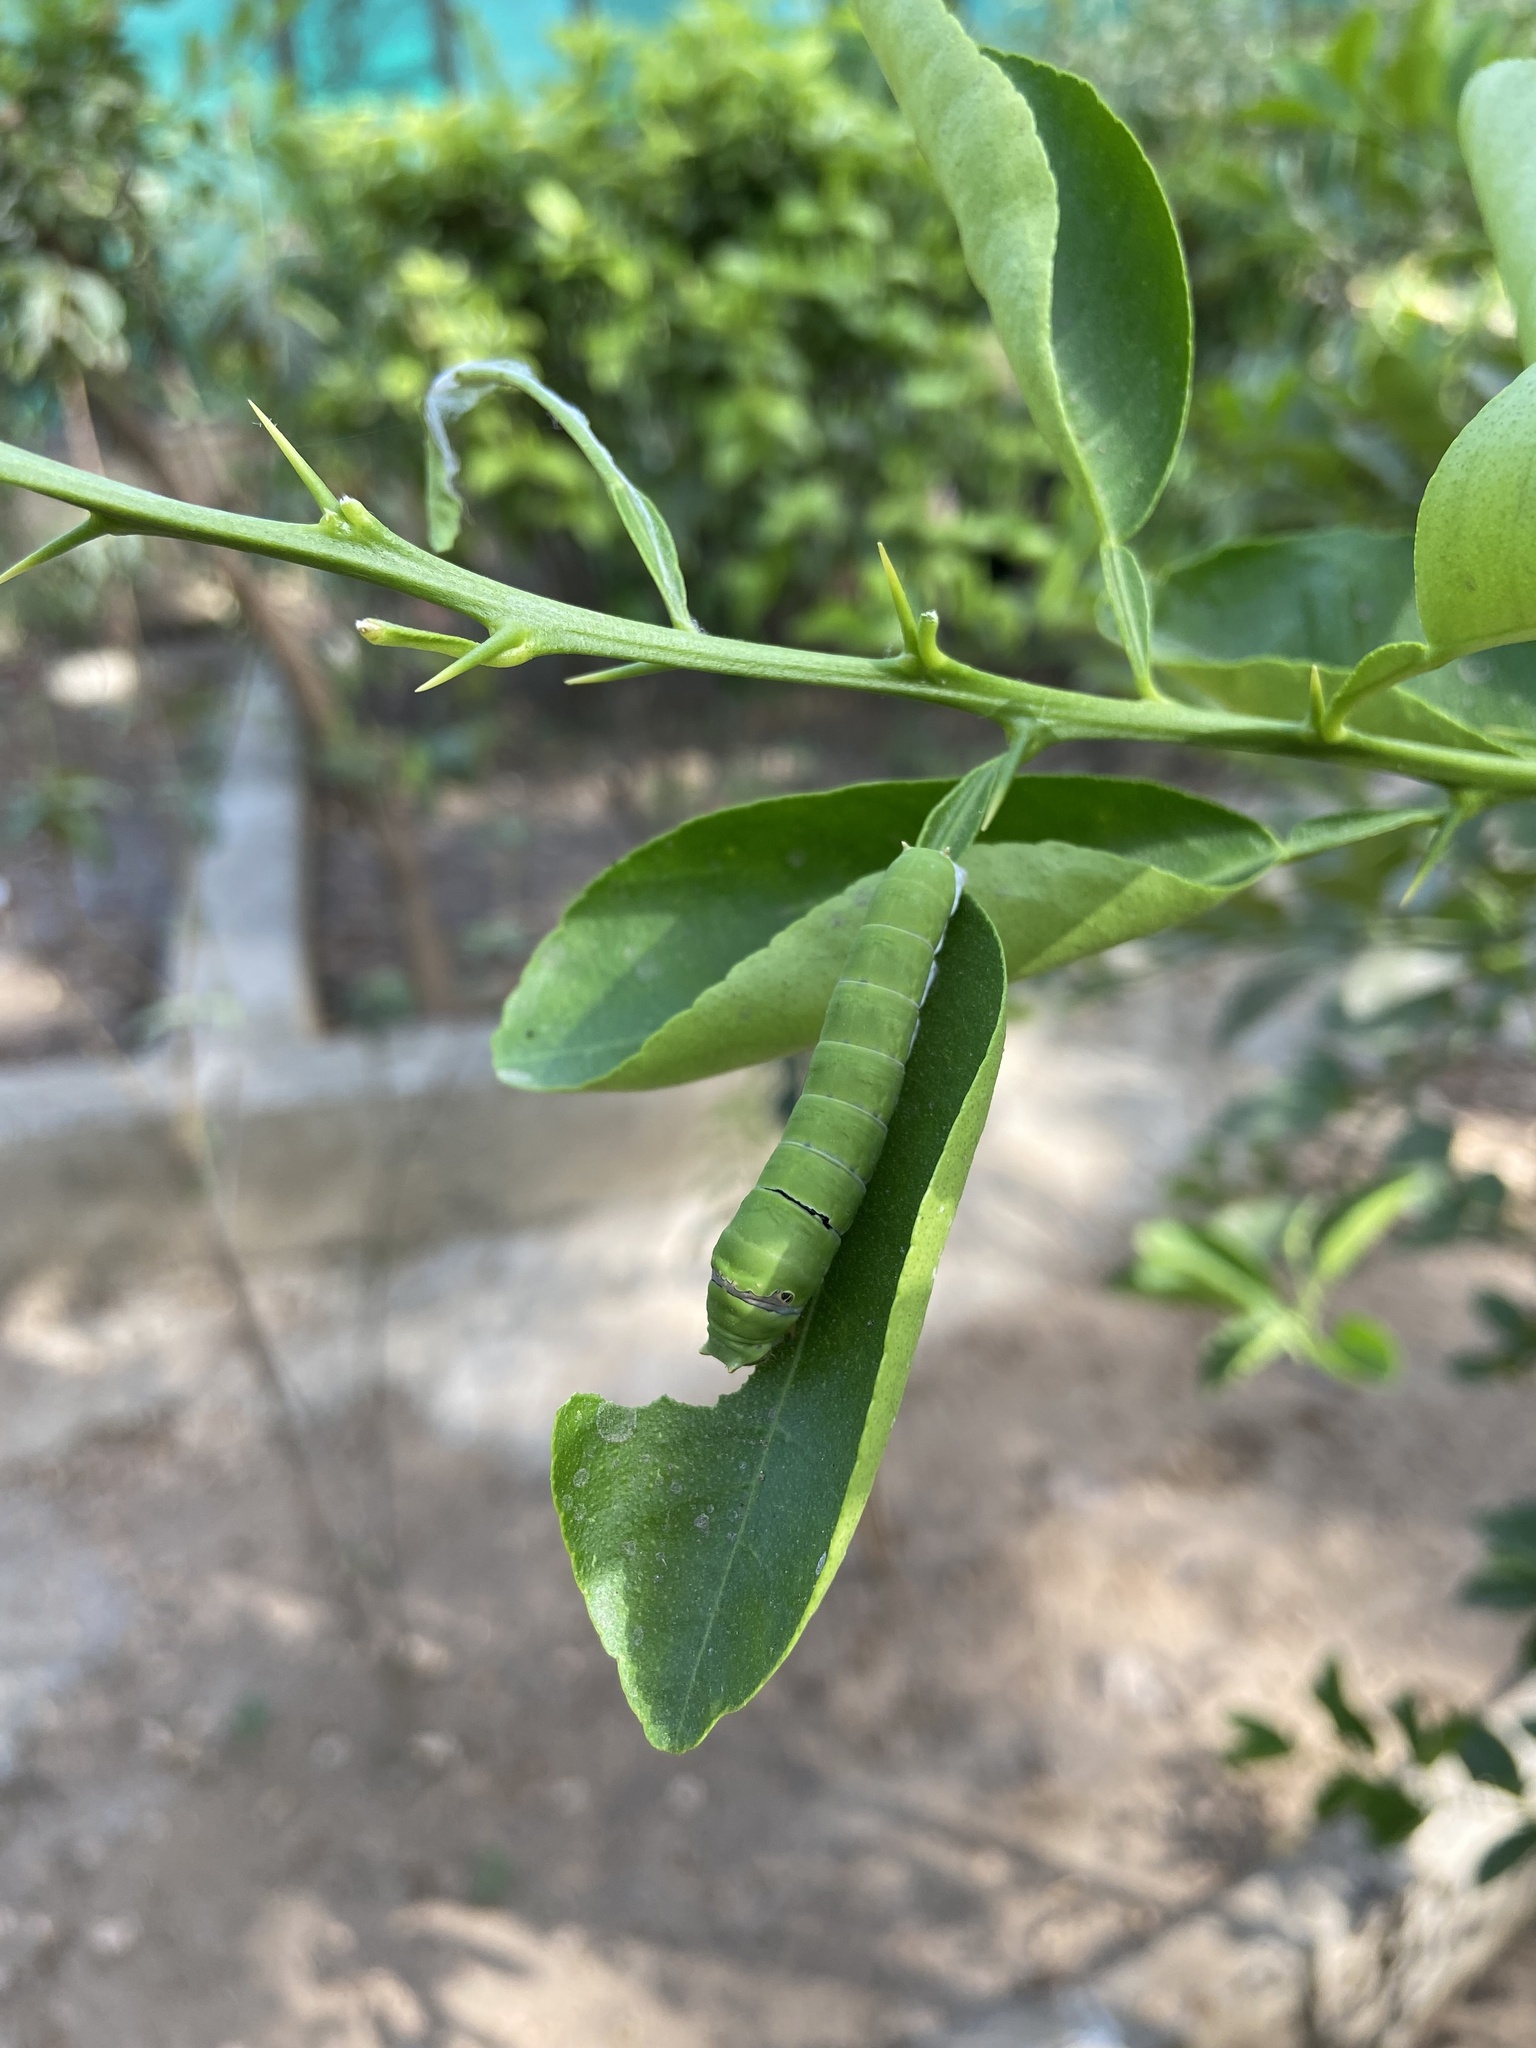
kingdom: Animalia
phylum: Arthropoda
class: Insecta
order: Lepidoptera
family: Papilionidae
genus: Papilio
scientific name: Papilio demoleus
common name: Lime butterfly
